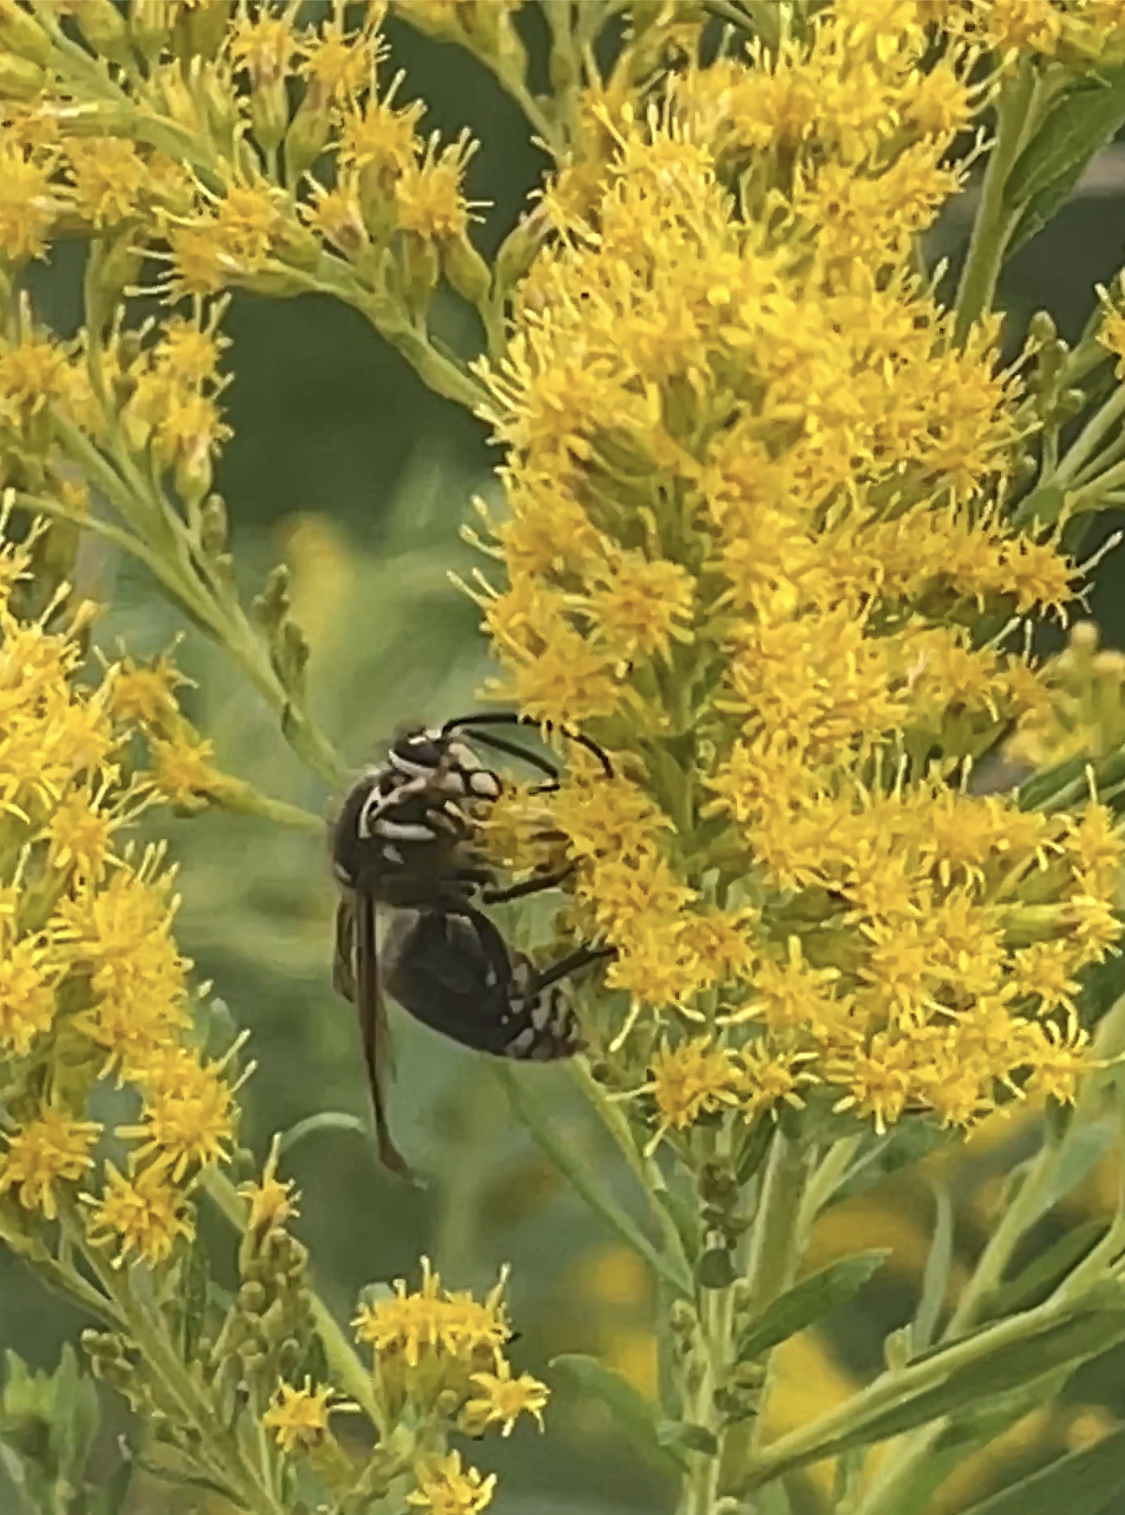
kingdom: Animalia
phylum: Arthropoda
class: Insecta
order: Hymenoptera
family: Vespidae
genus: Dolichovespula
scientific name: Dolichovespula maculata
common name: Bald-faced hornet
